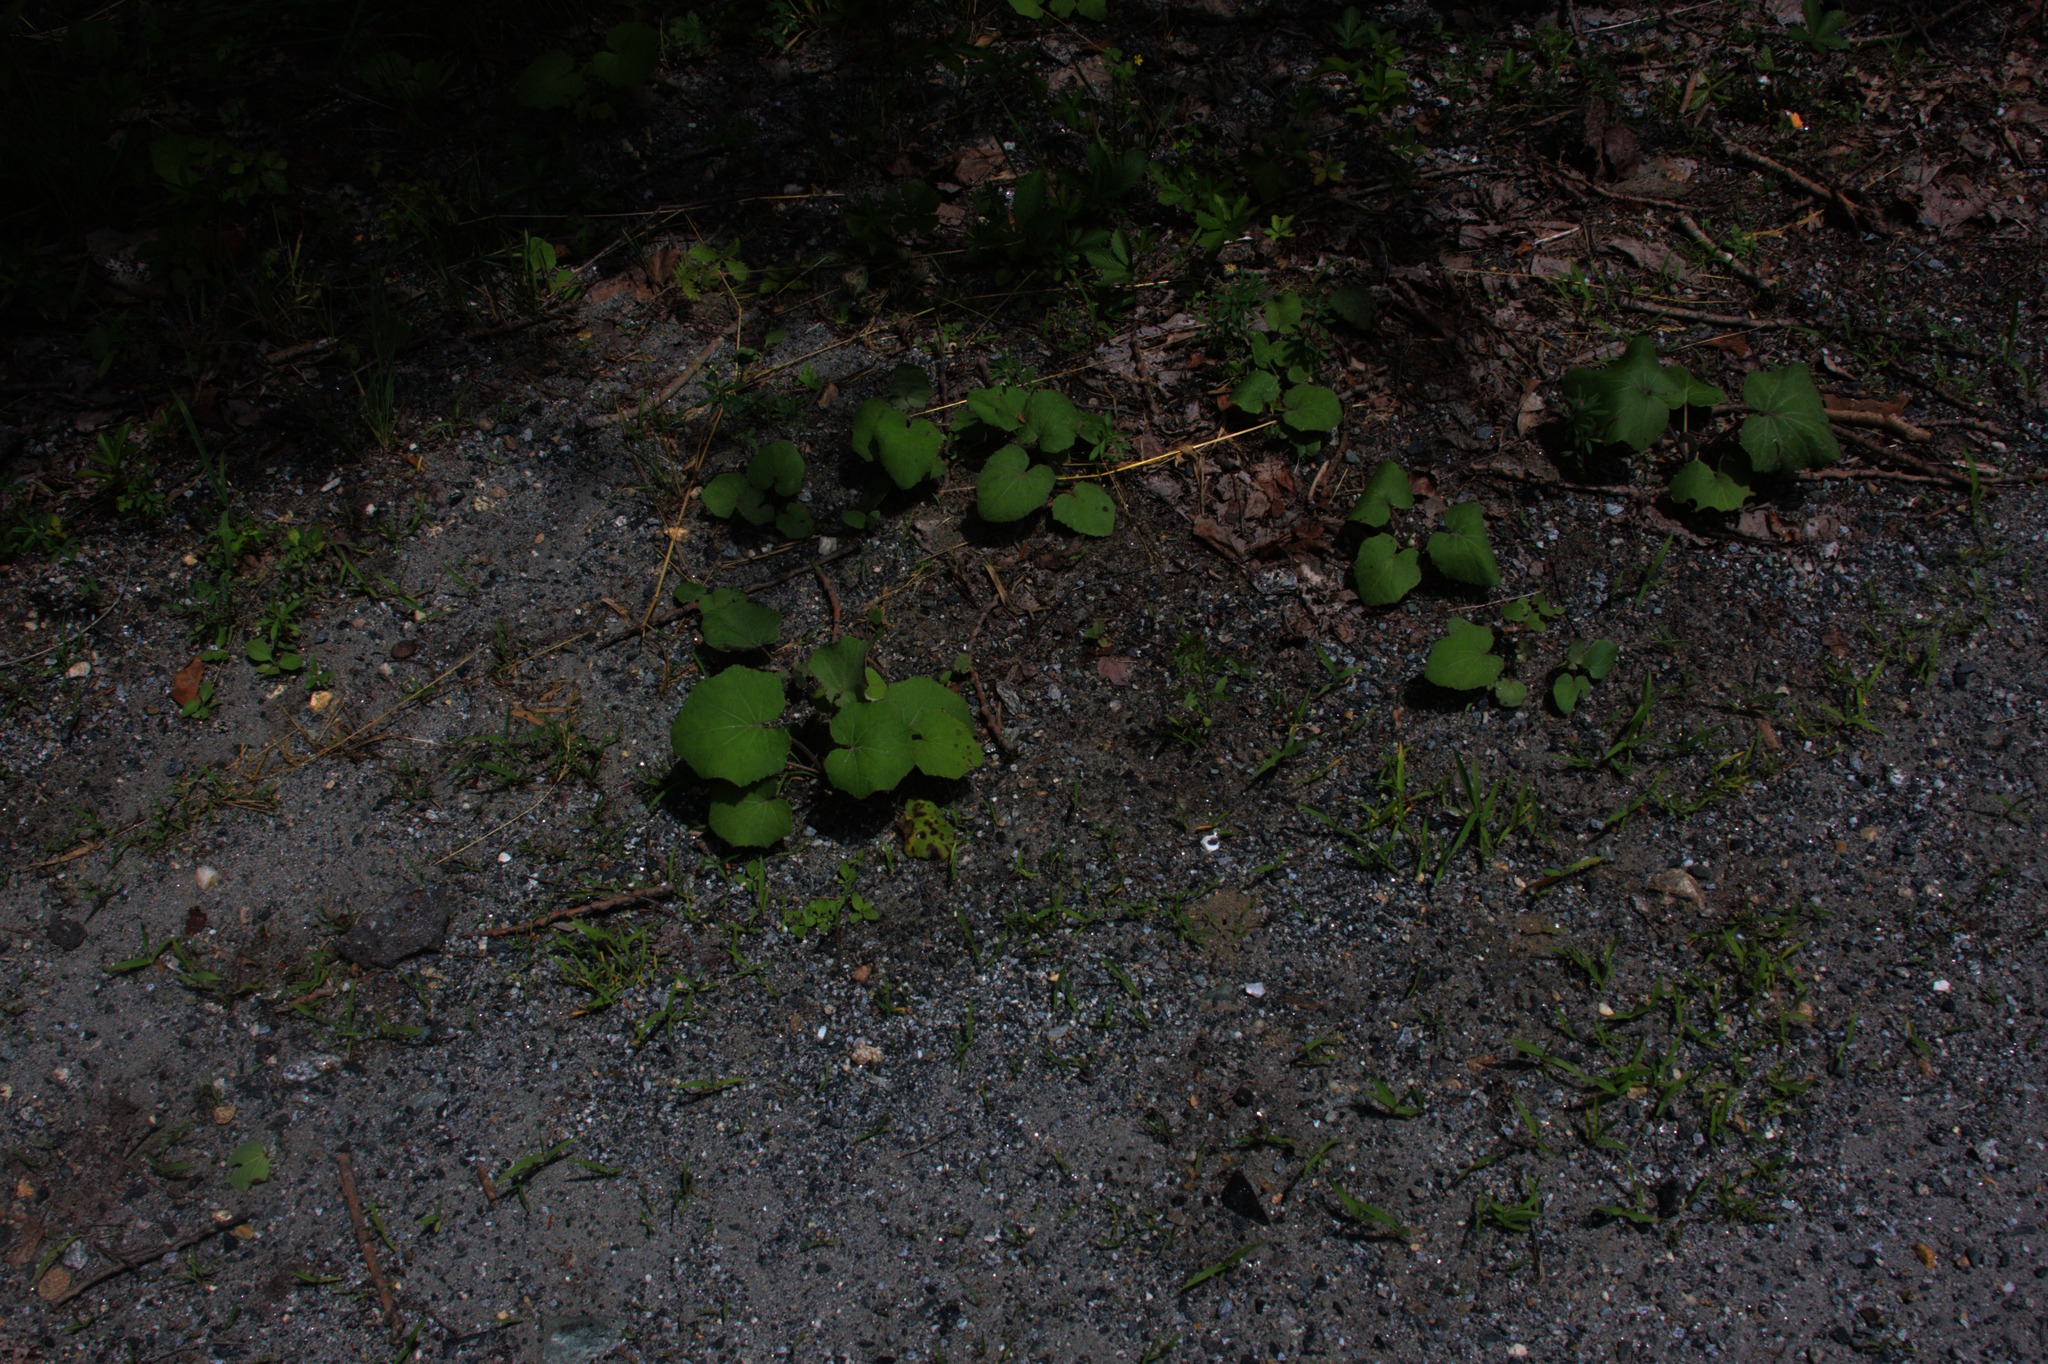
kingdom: Plantae
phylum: Tracheophyta
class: Magnoliopsida
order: Asterales
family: Asteraceae
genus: Tussilago
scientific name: Tussilago farfara
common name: Coltsfoot
